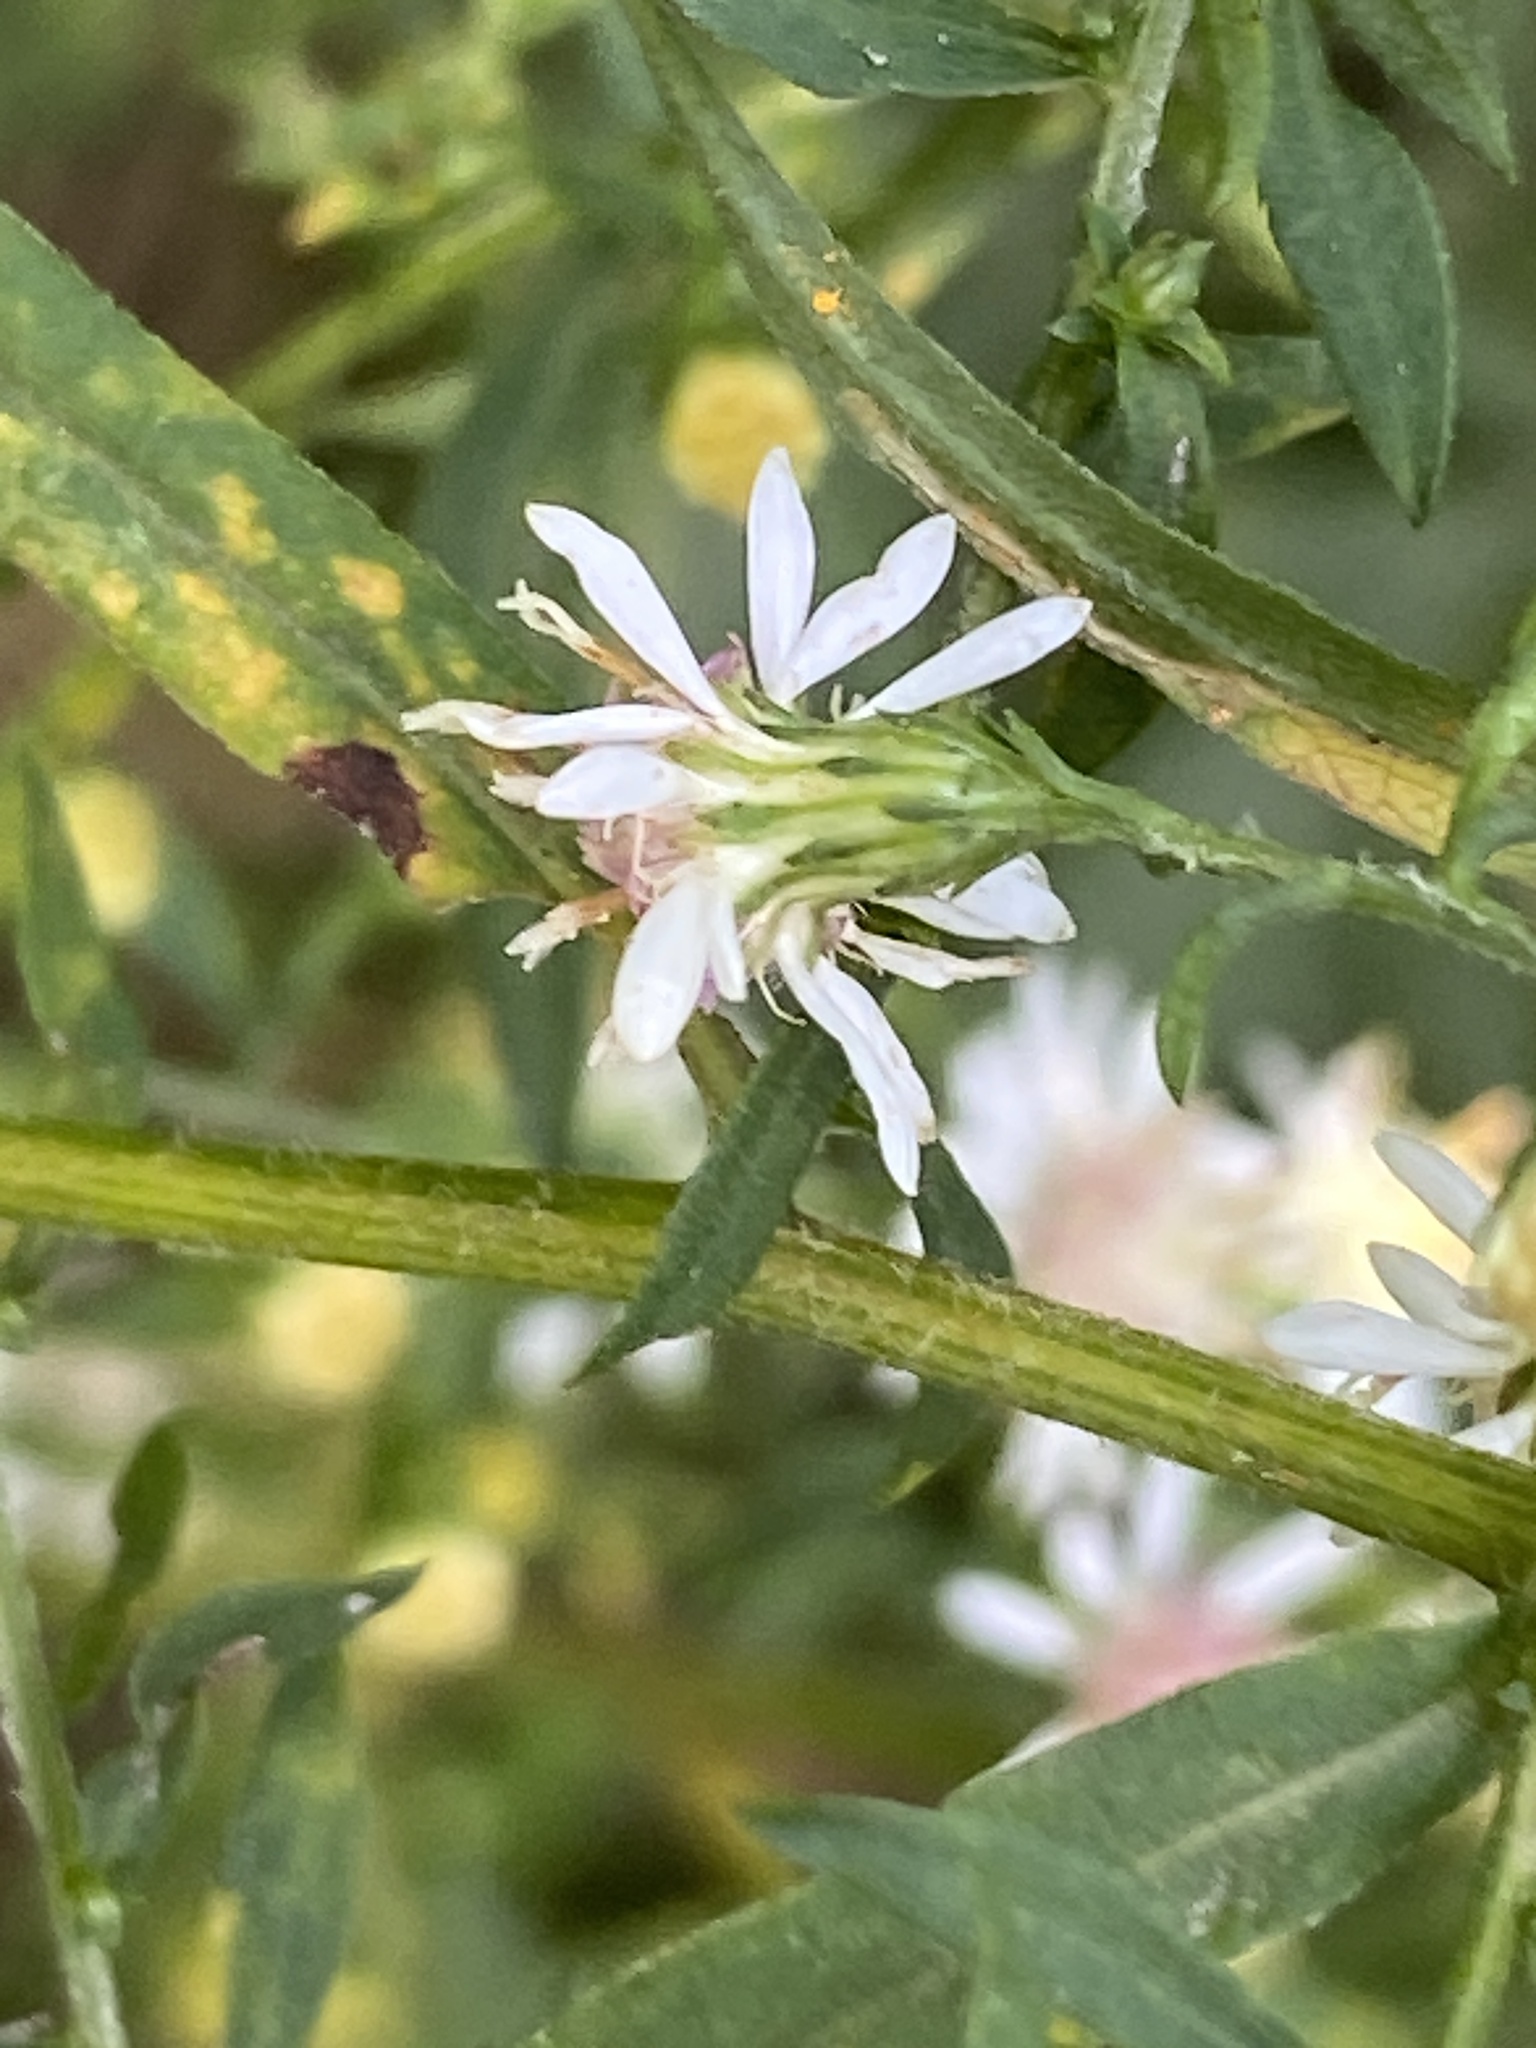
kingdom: Plantae
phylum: Tracheophyta
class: Magnoliopsida
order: Asterales
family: Asteraceae
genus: Symphyotrichum
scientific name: Symphyotrichum lateriflorum
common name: Calico aster
